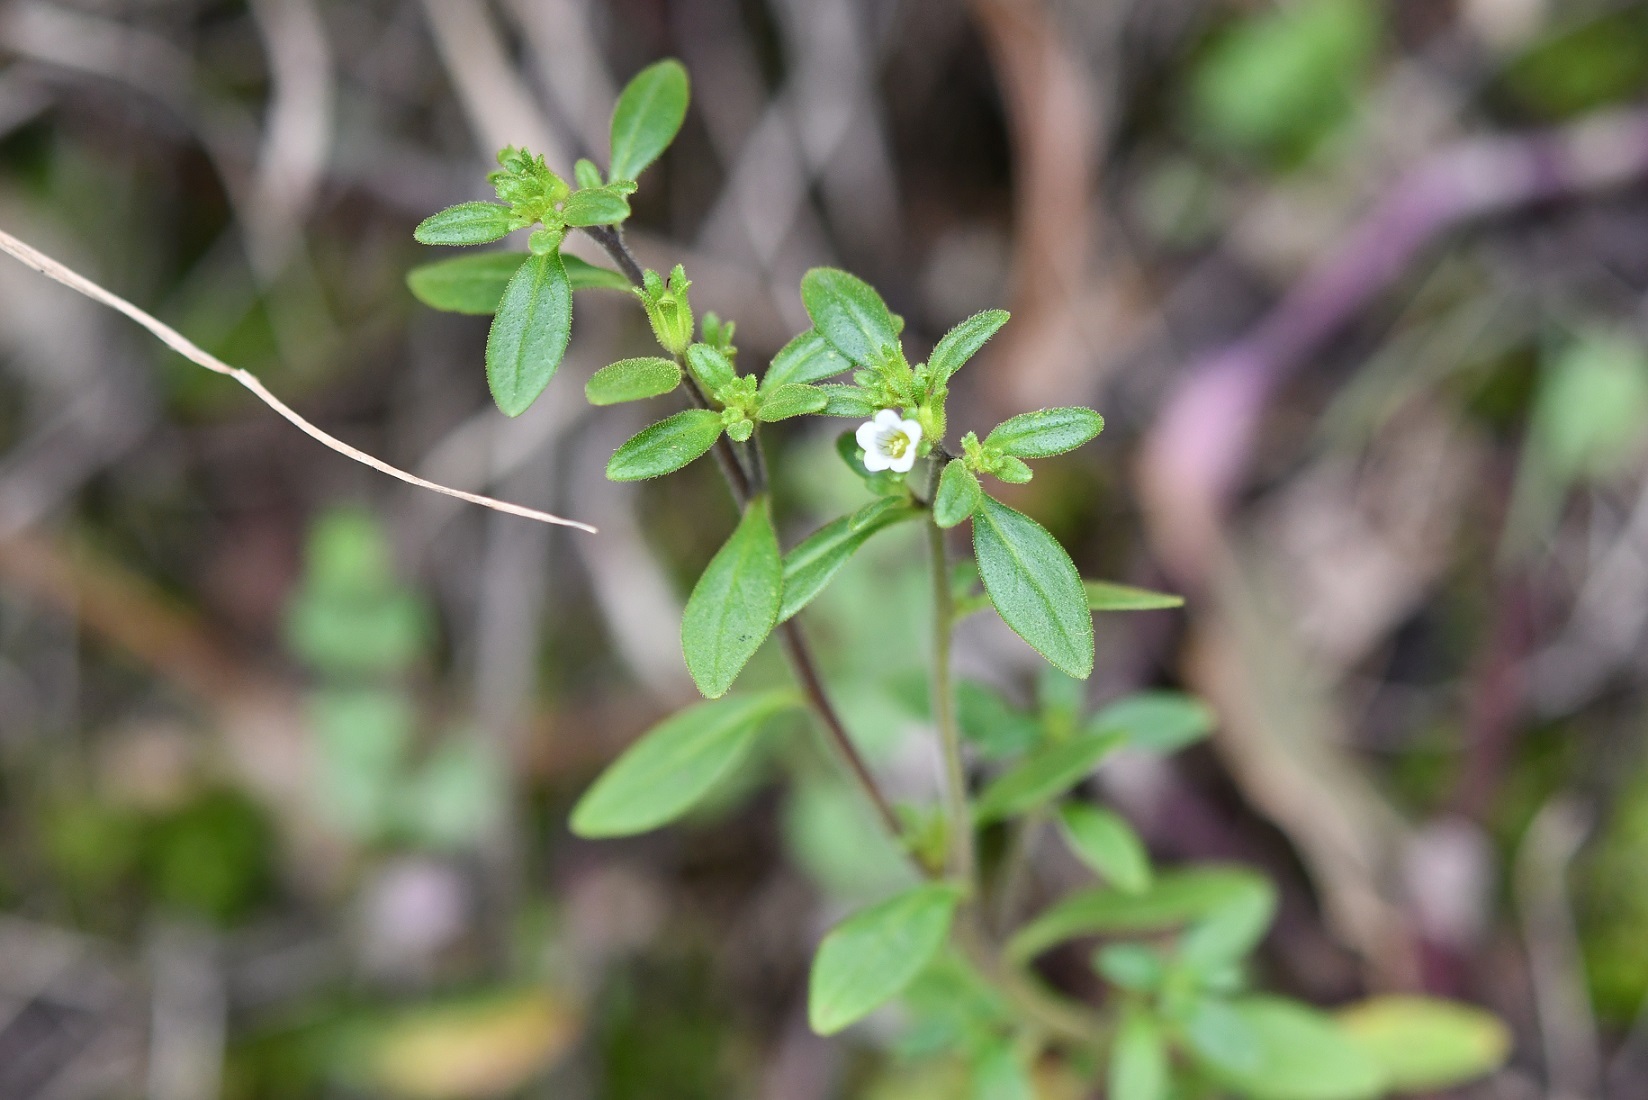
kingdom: Plantae
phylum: Tracheophyta
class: Magnoliopsida
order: Boraginales
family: Namaceae
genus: Nama
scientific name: Nama dichotoma
